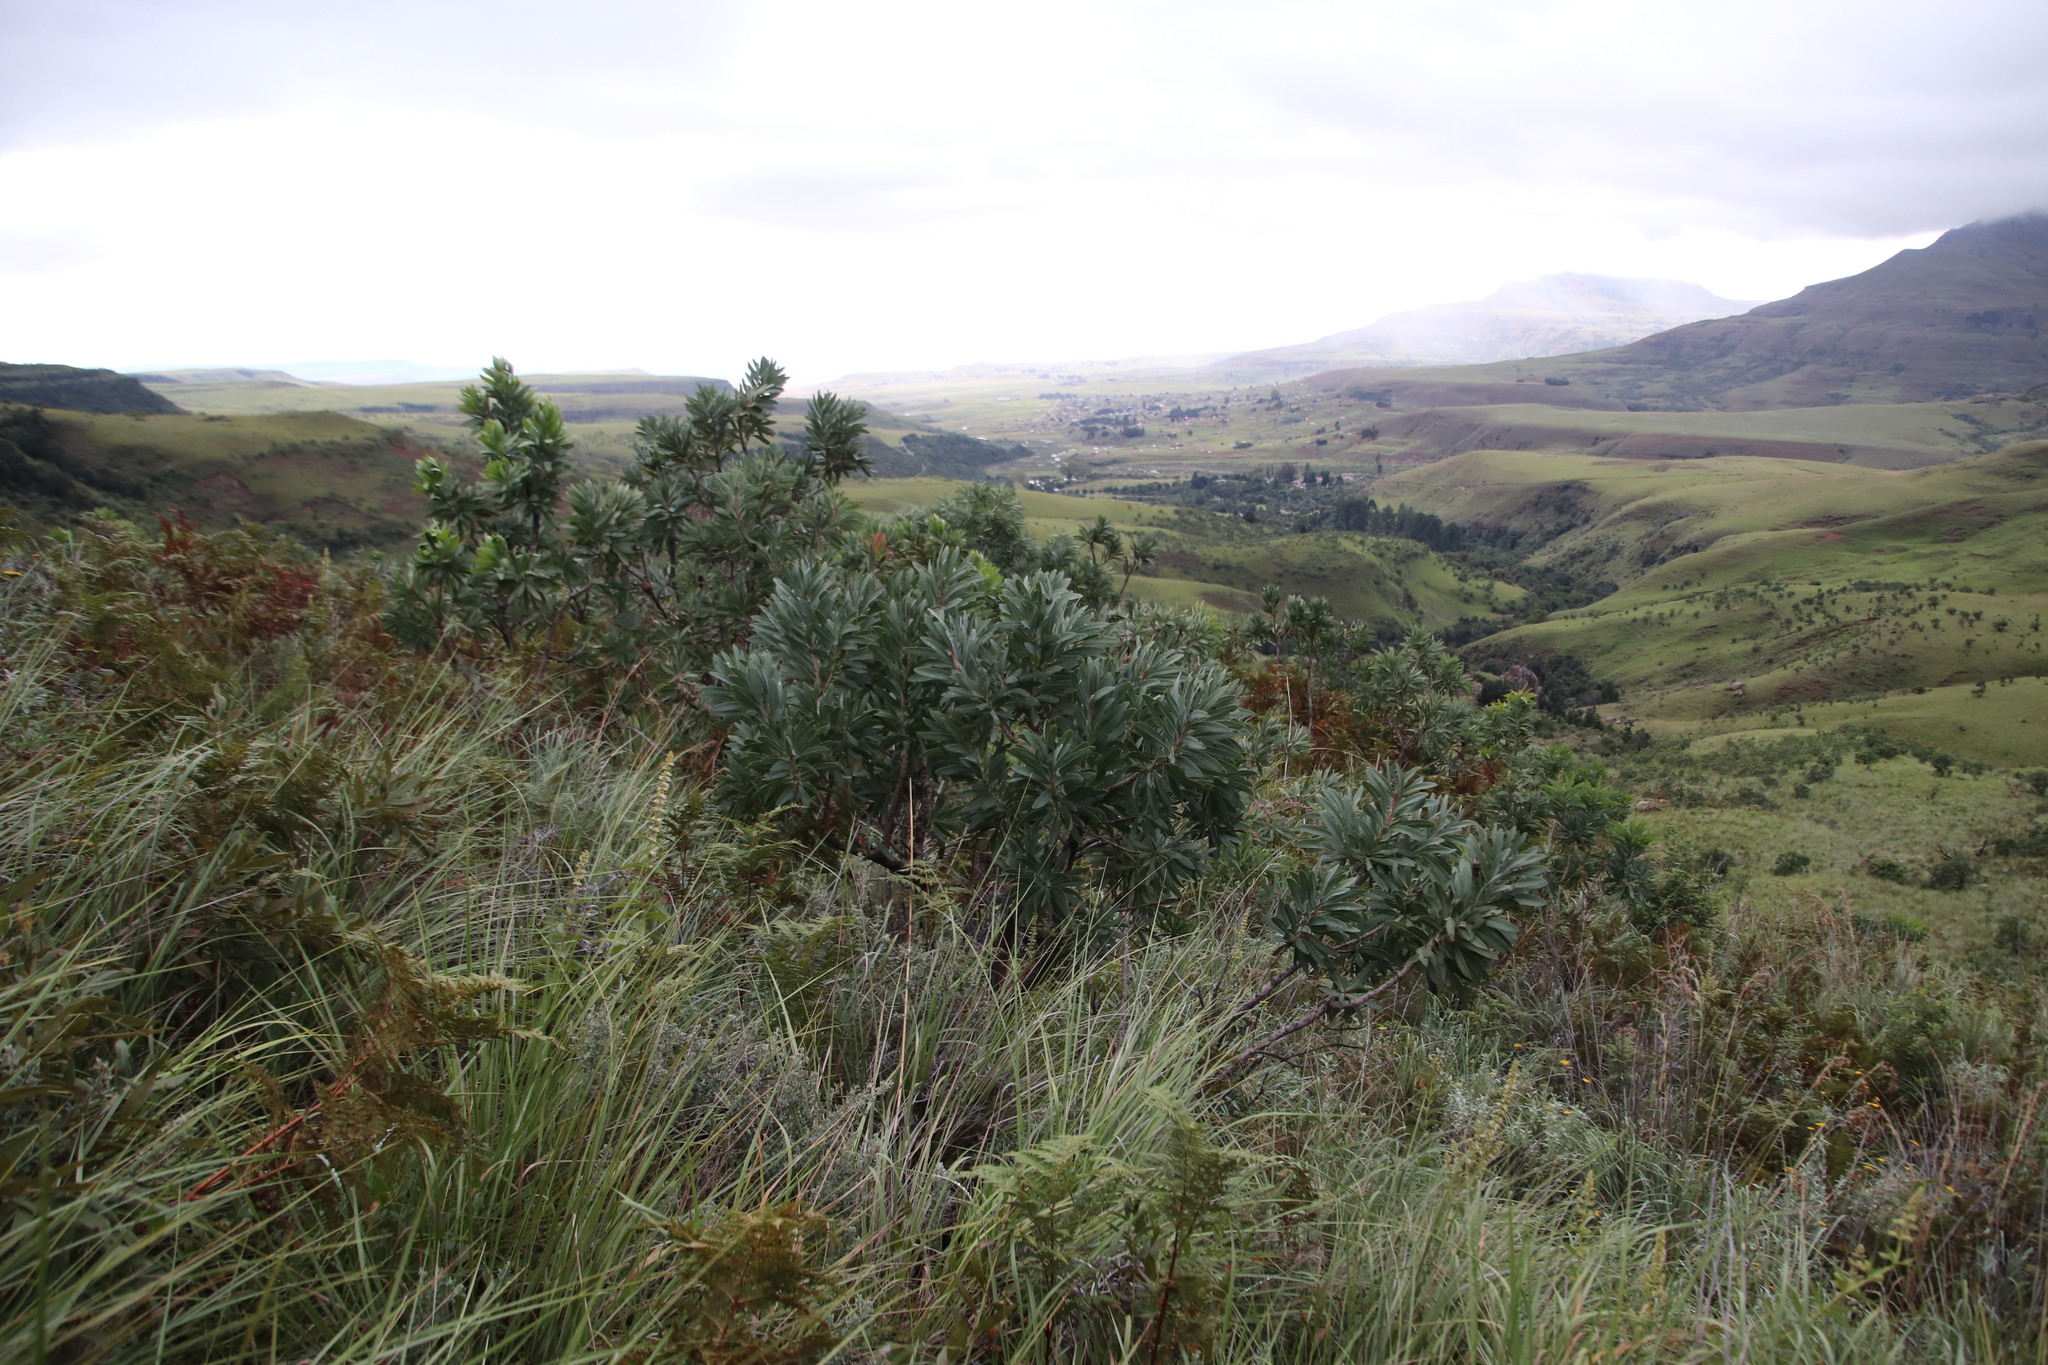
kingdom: Plantae
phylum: Tracheophyta
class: Magnoliopsida
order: Proteales
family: Proteaceae
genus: Protea
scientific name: Protea roupelliae
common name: Silver sugarbush
